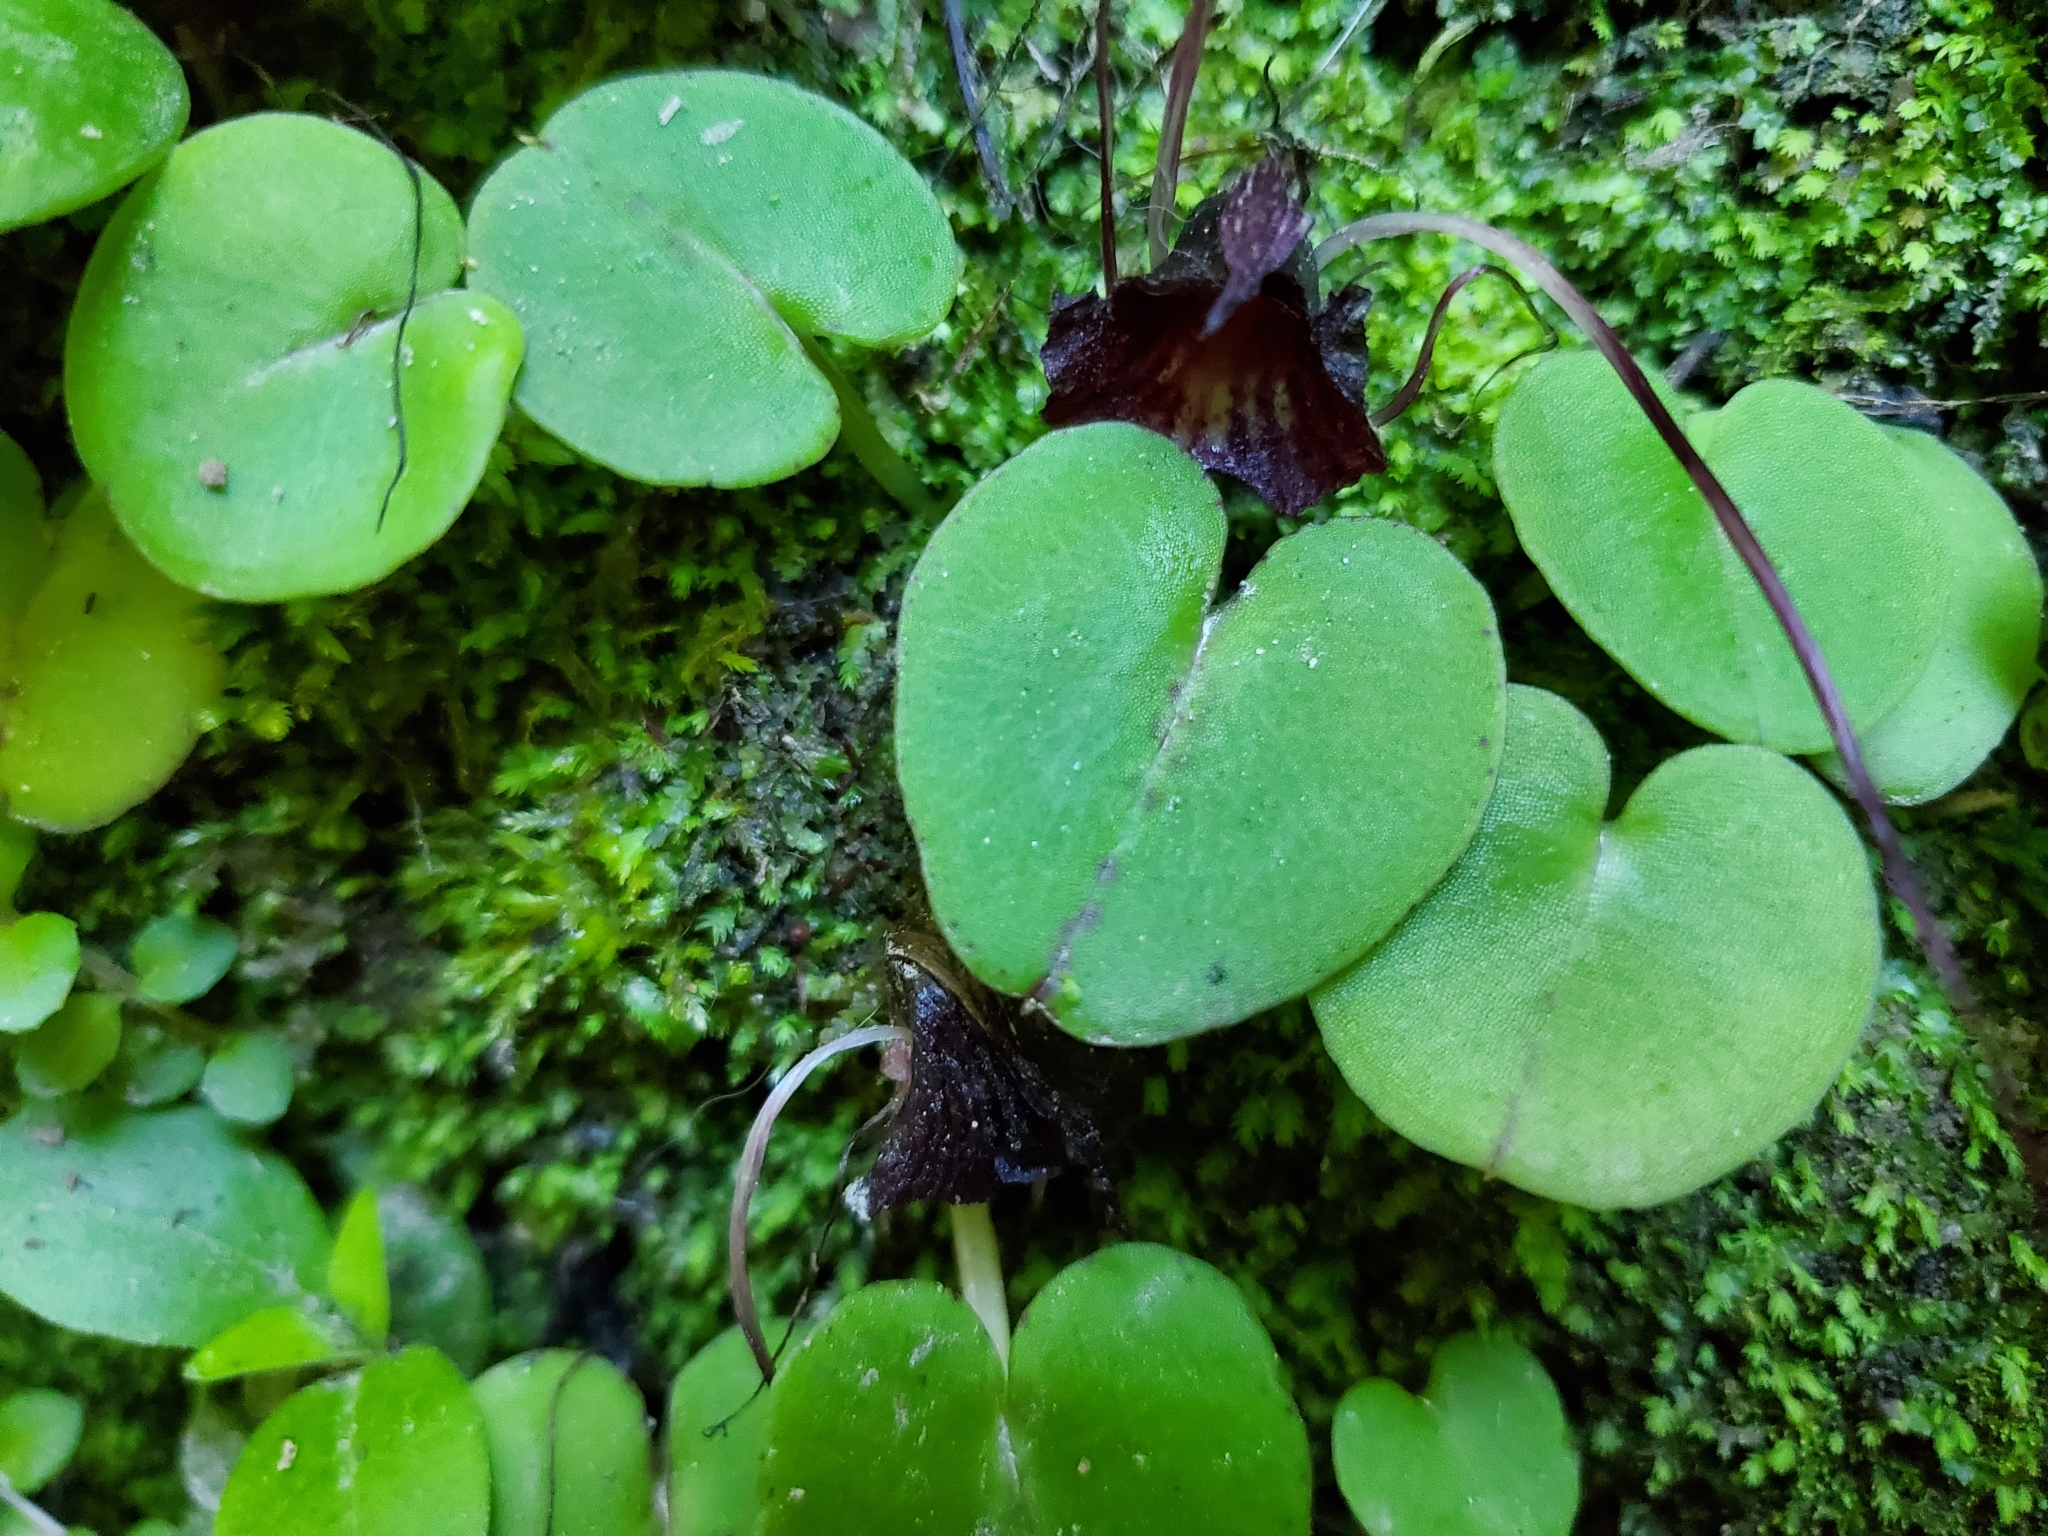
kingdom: Plantae
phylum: Tracheophyta
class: Liliopsida
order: Asparagales
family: Orchidaceae
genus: Corybas
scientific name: Corybas macranthus
